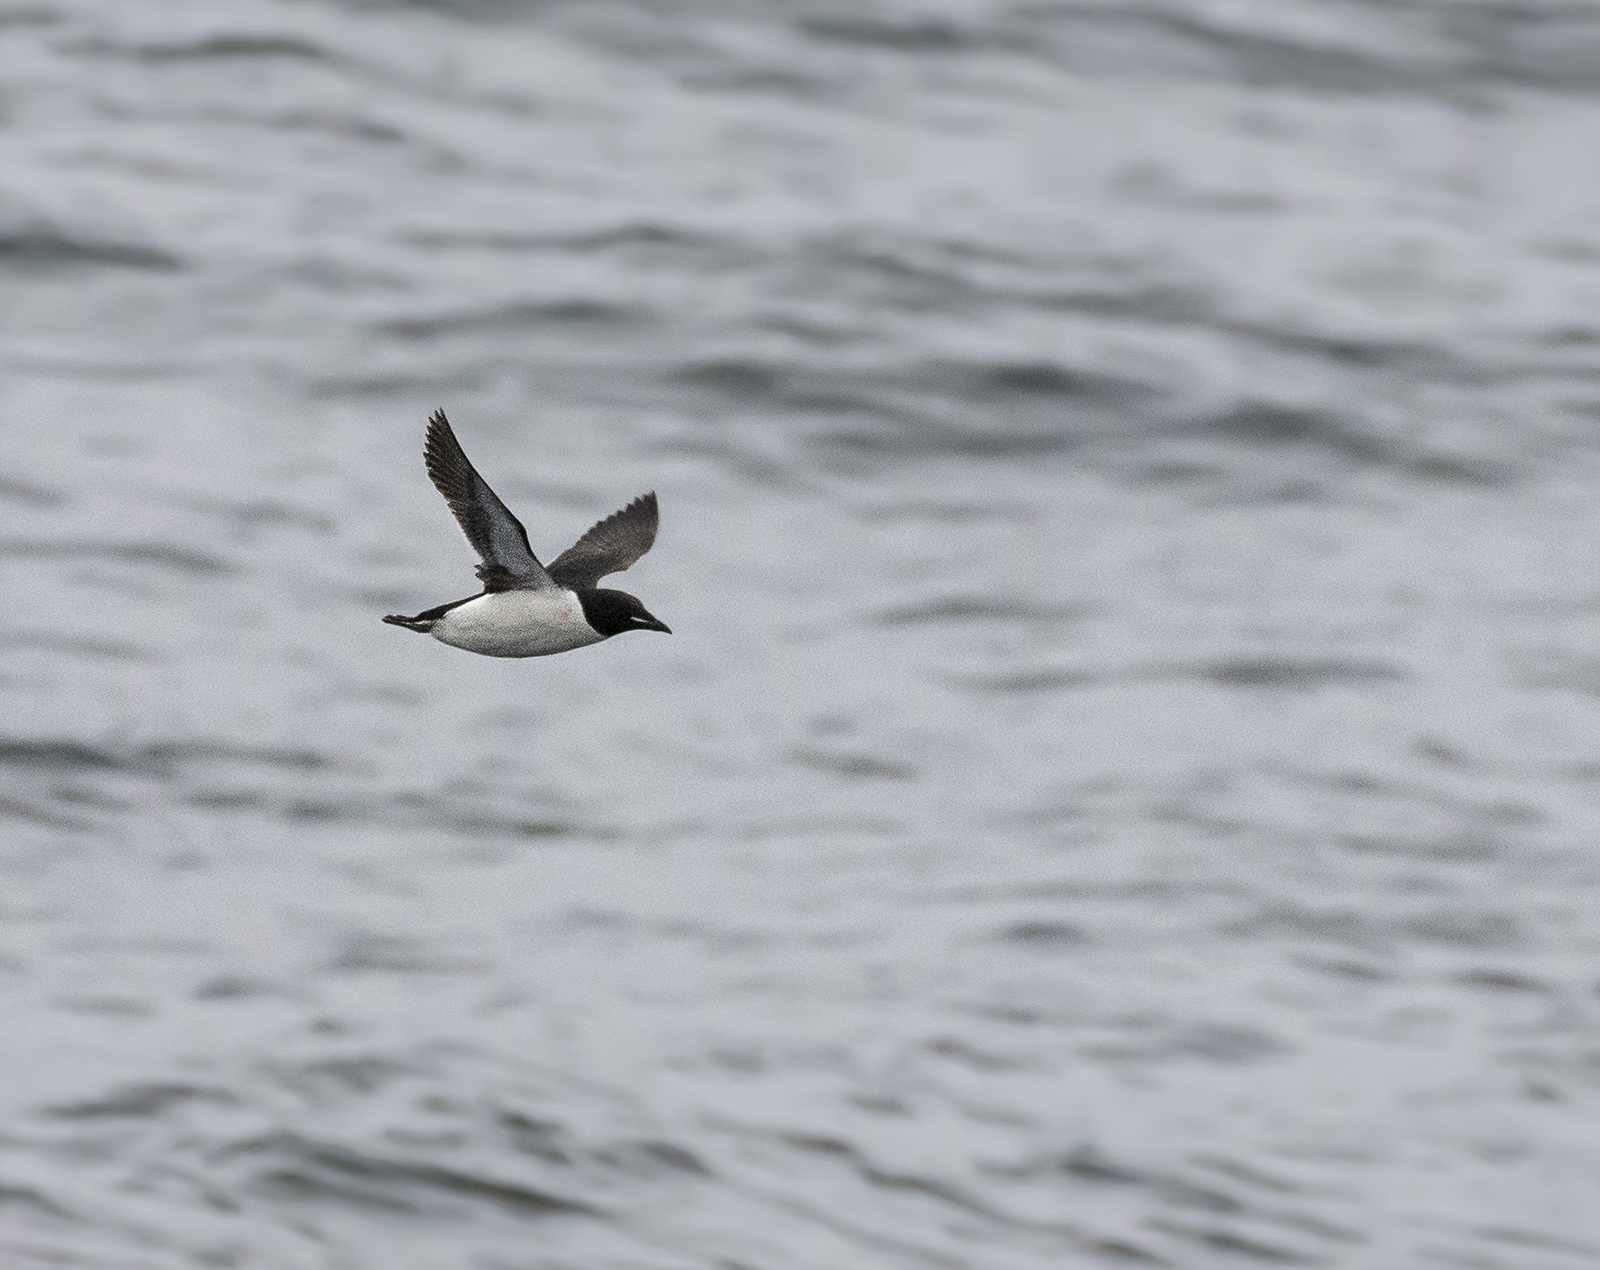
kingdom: Animalia
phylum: Chordata
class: Aves
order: Charadriiformes
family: Alcidae
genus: Uria
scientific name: Uria lomvia
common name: Thick-billed murre
